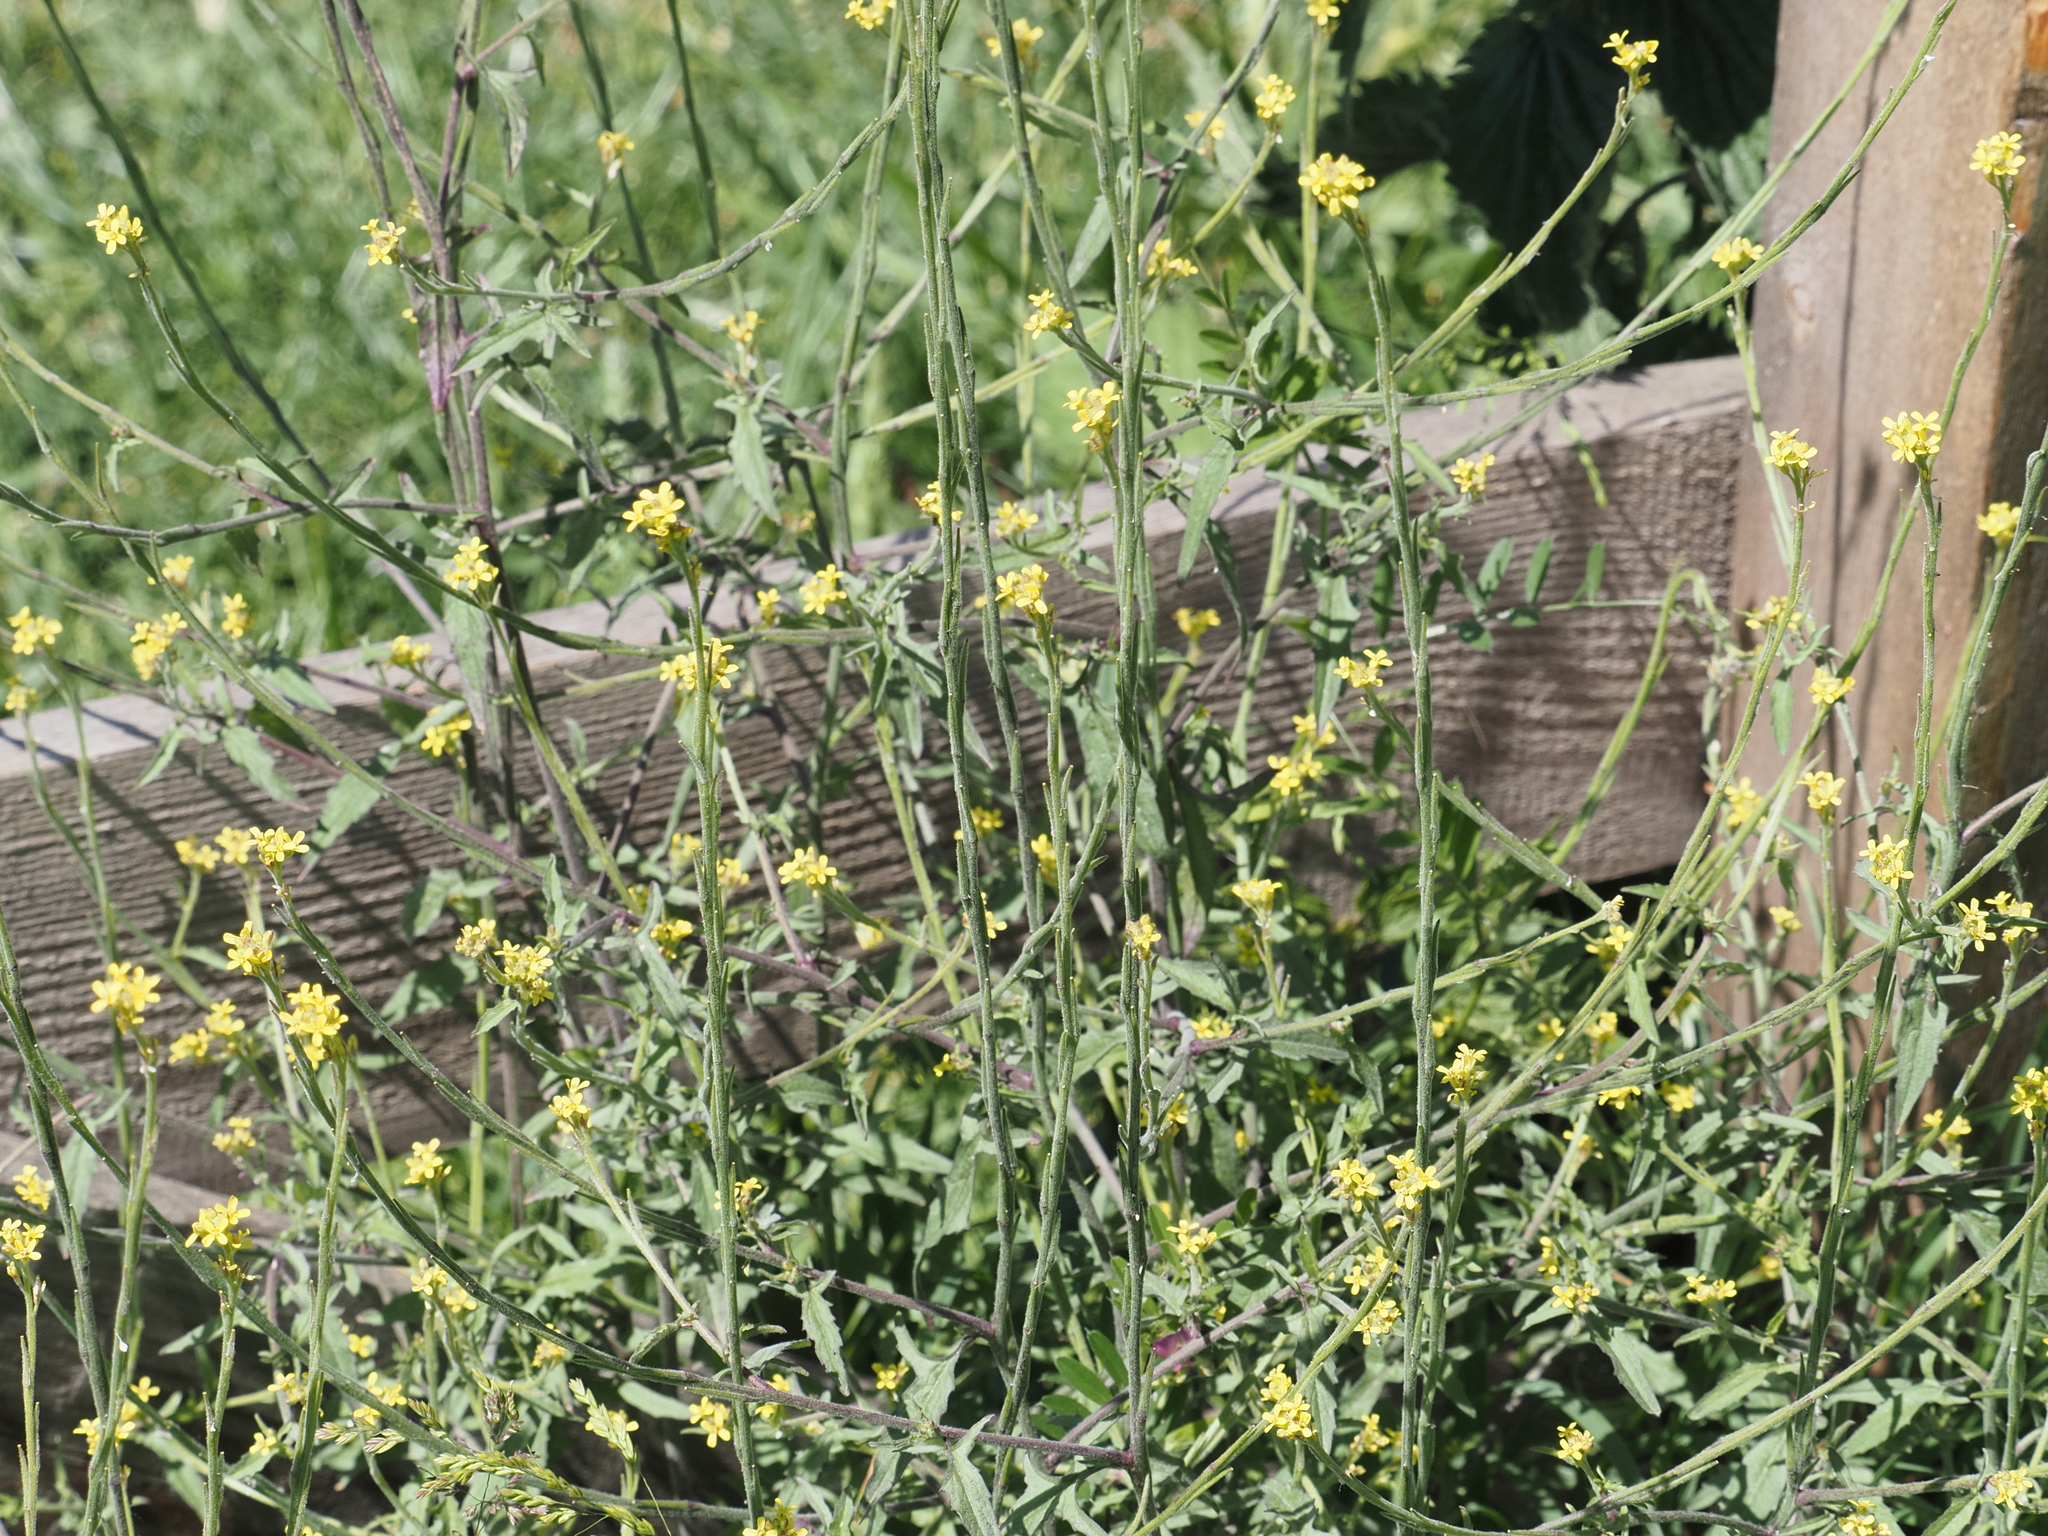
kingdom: Plantae
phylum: Tracheophyta
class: Magnoliopsida
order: Brassicales
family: Brassicaceae
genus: Sisymbrium
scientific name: Sisymbrium officinale
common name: Hedge mustard
